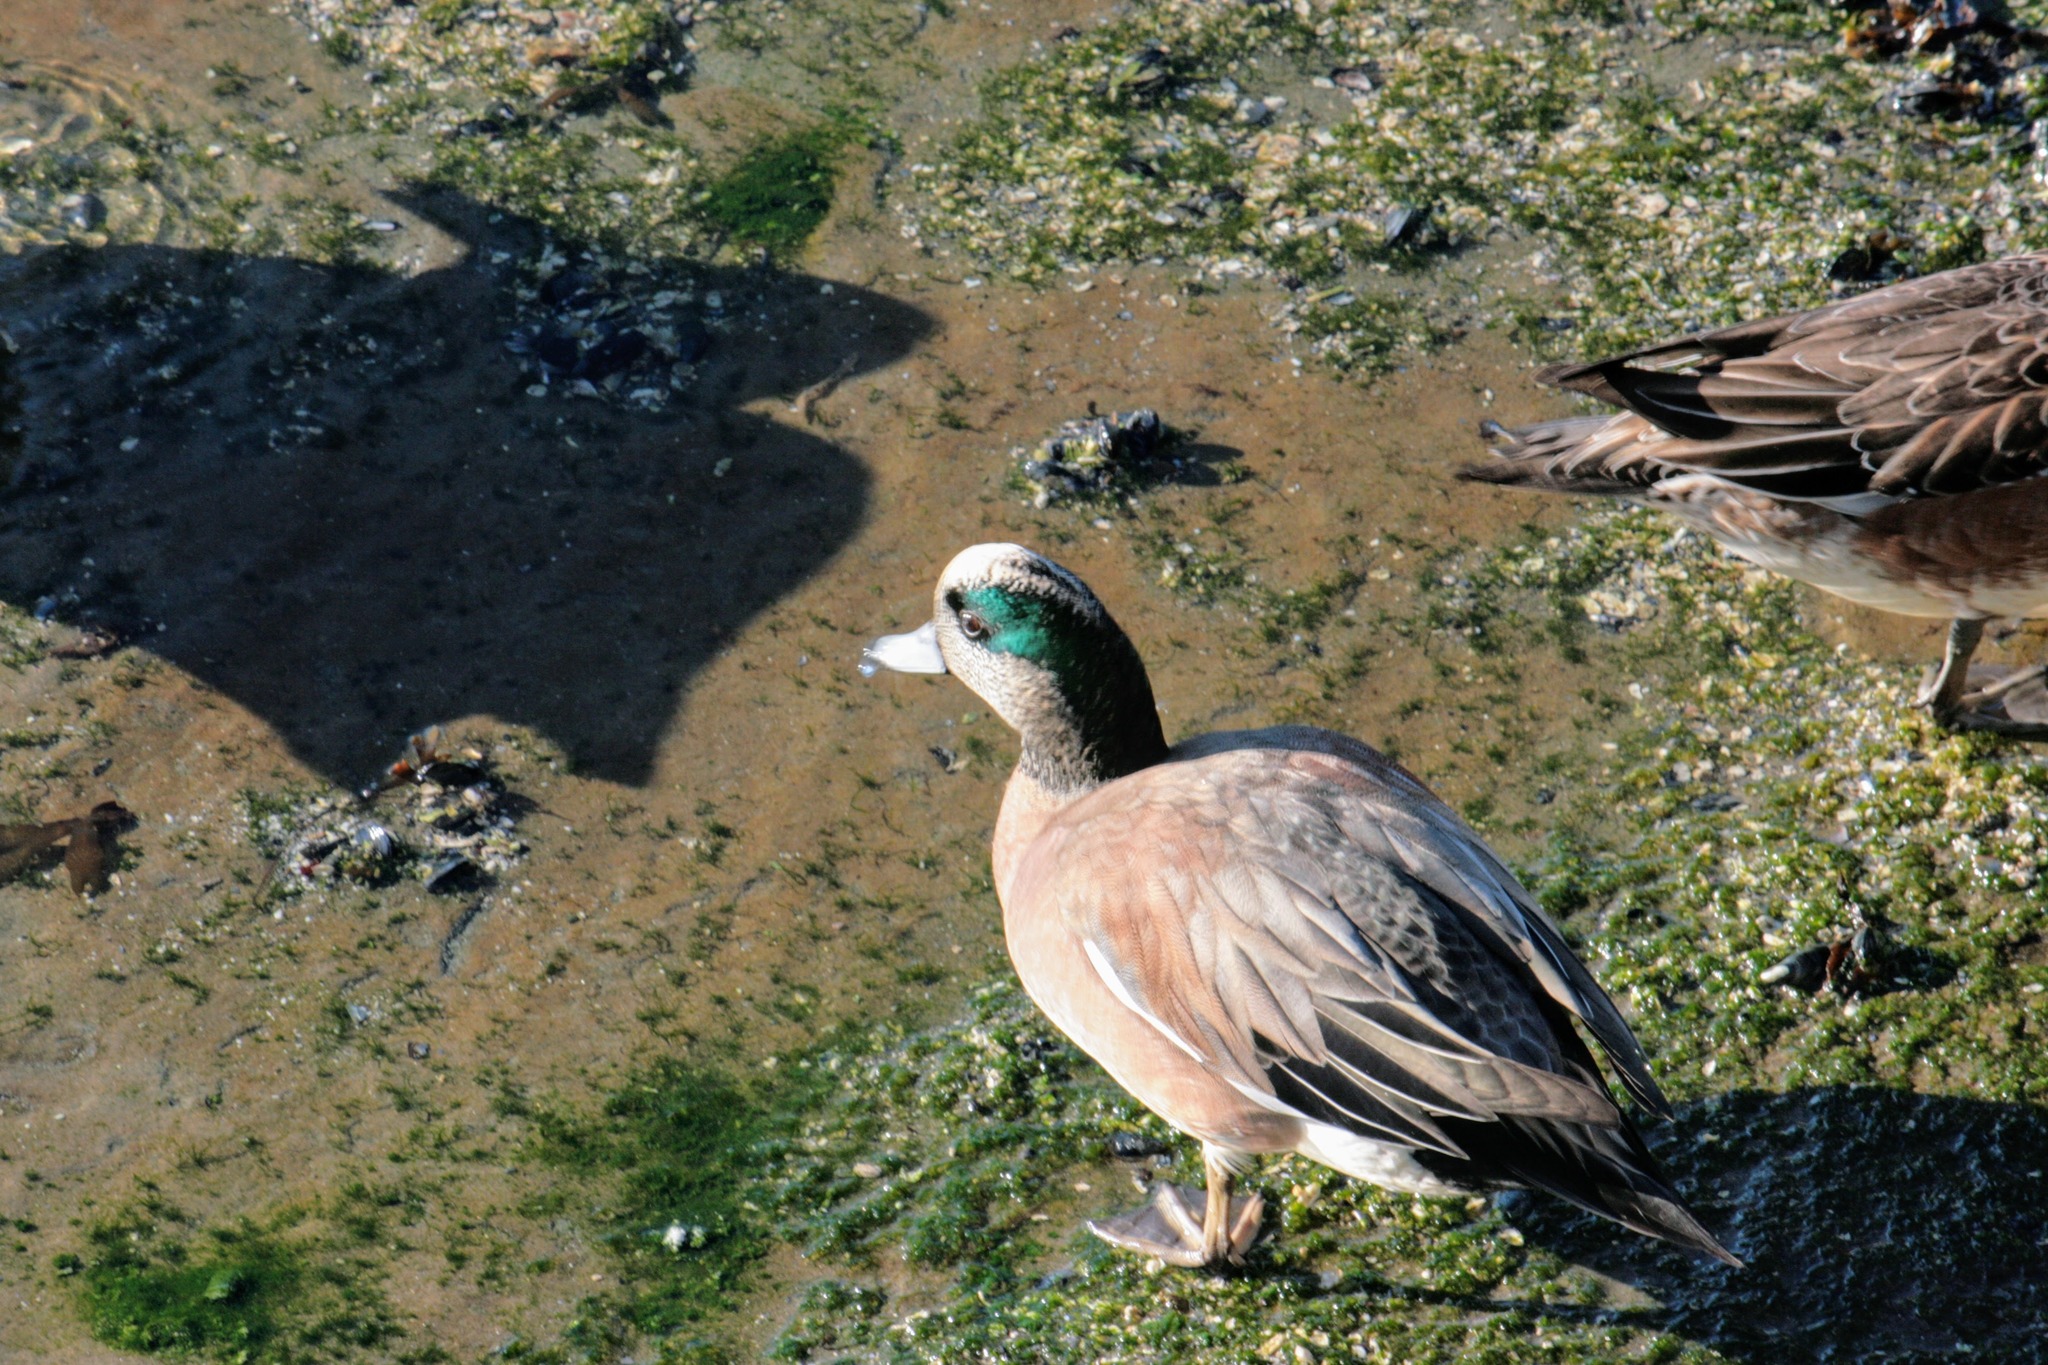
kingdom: Animalia
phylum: Chordata
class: Aves
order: Anseriformes
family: Anatidae
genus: Mareca
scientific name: Mareca americana
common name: American wigeon
